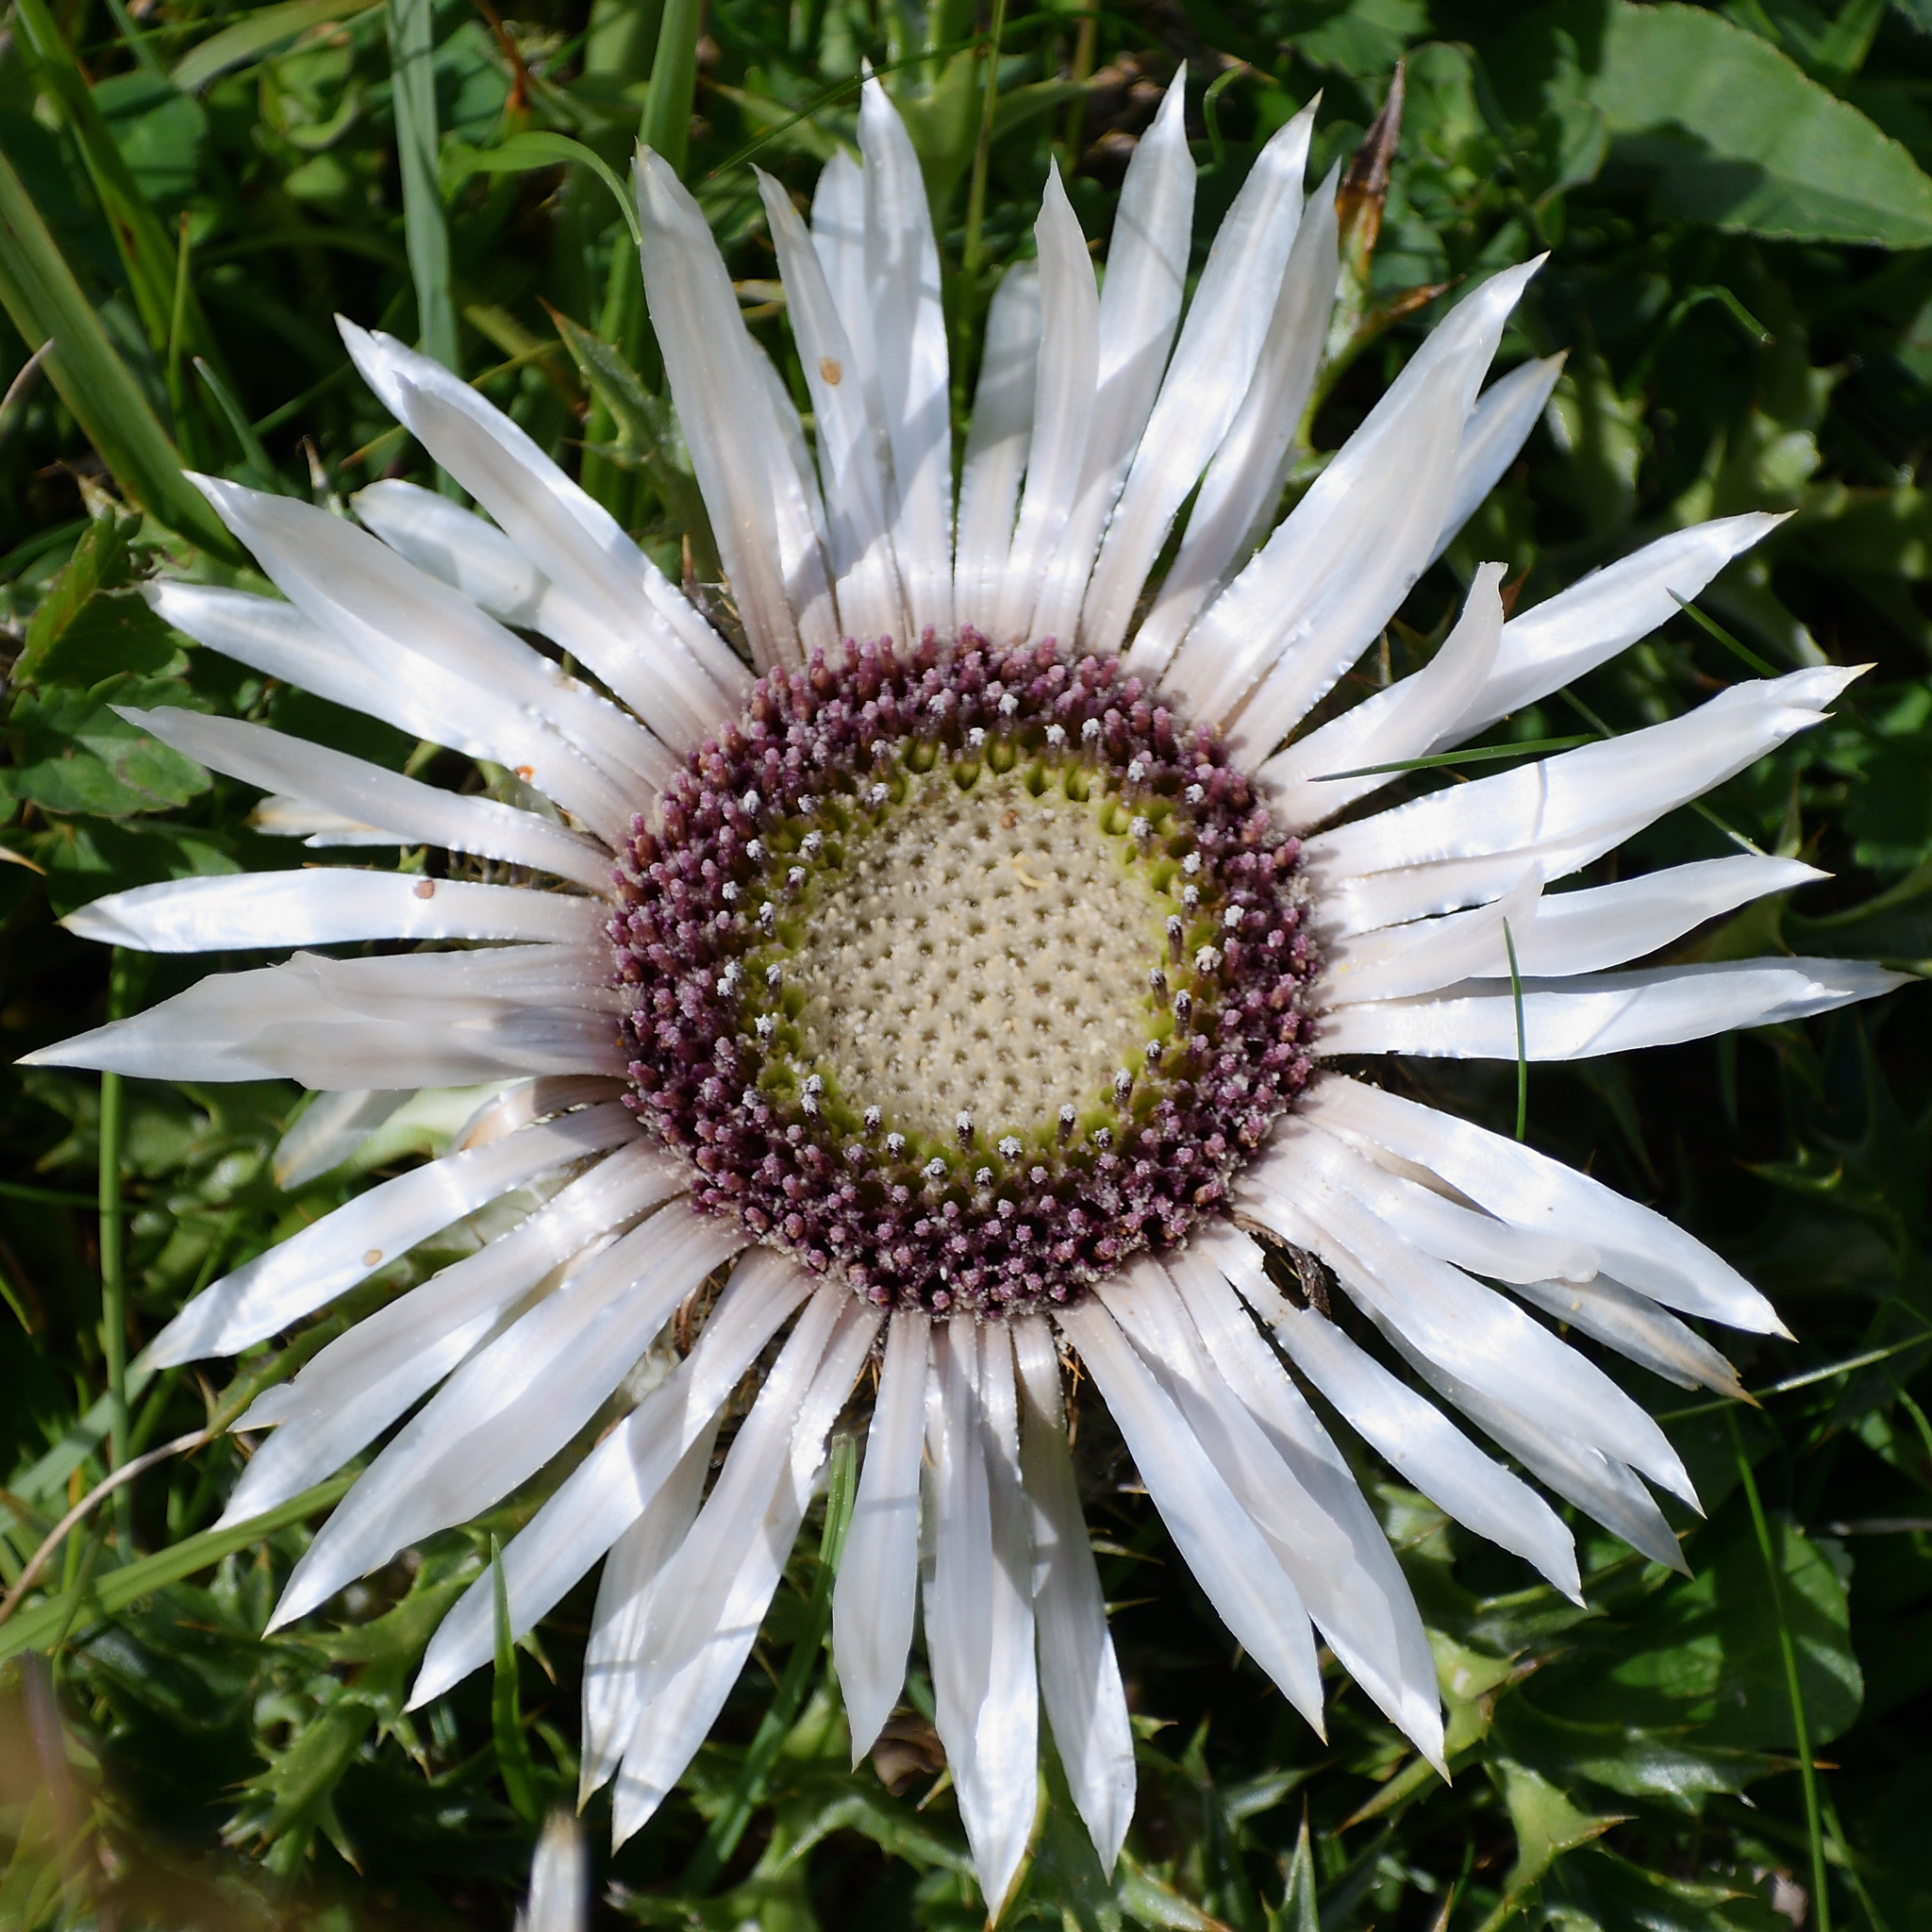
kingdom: Plantae
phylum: Tracheophyta
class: Magnoliopsida
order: Asterales
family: Asteraceae
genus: Carlina
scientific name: Carlina acaulis
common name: Stemless carline thistle
